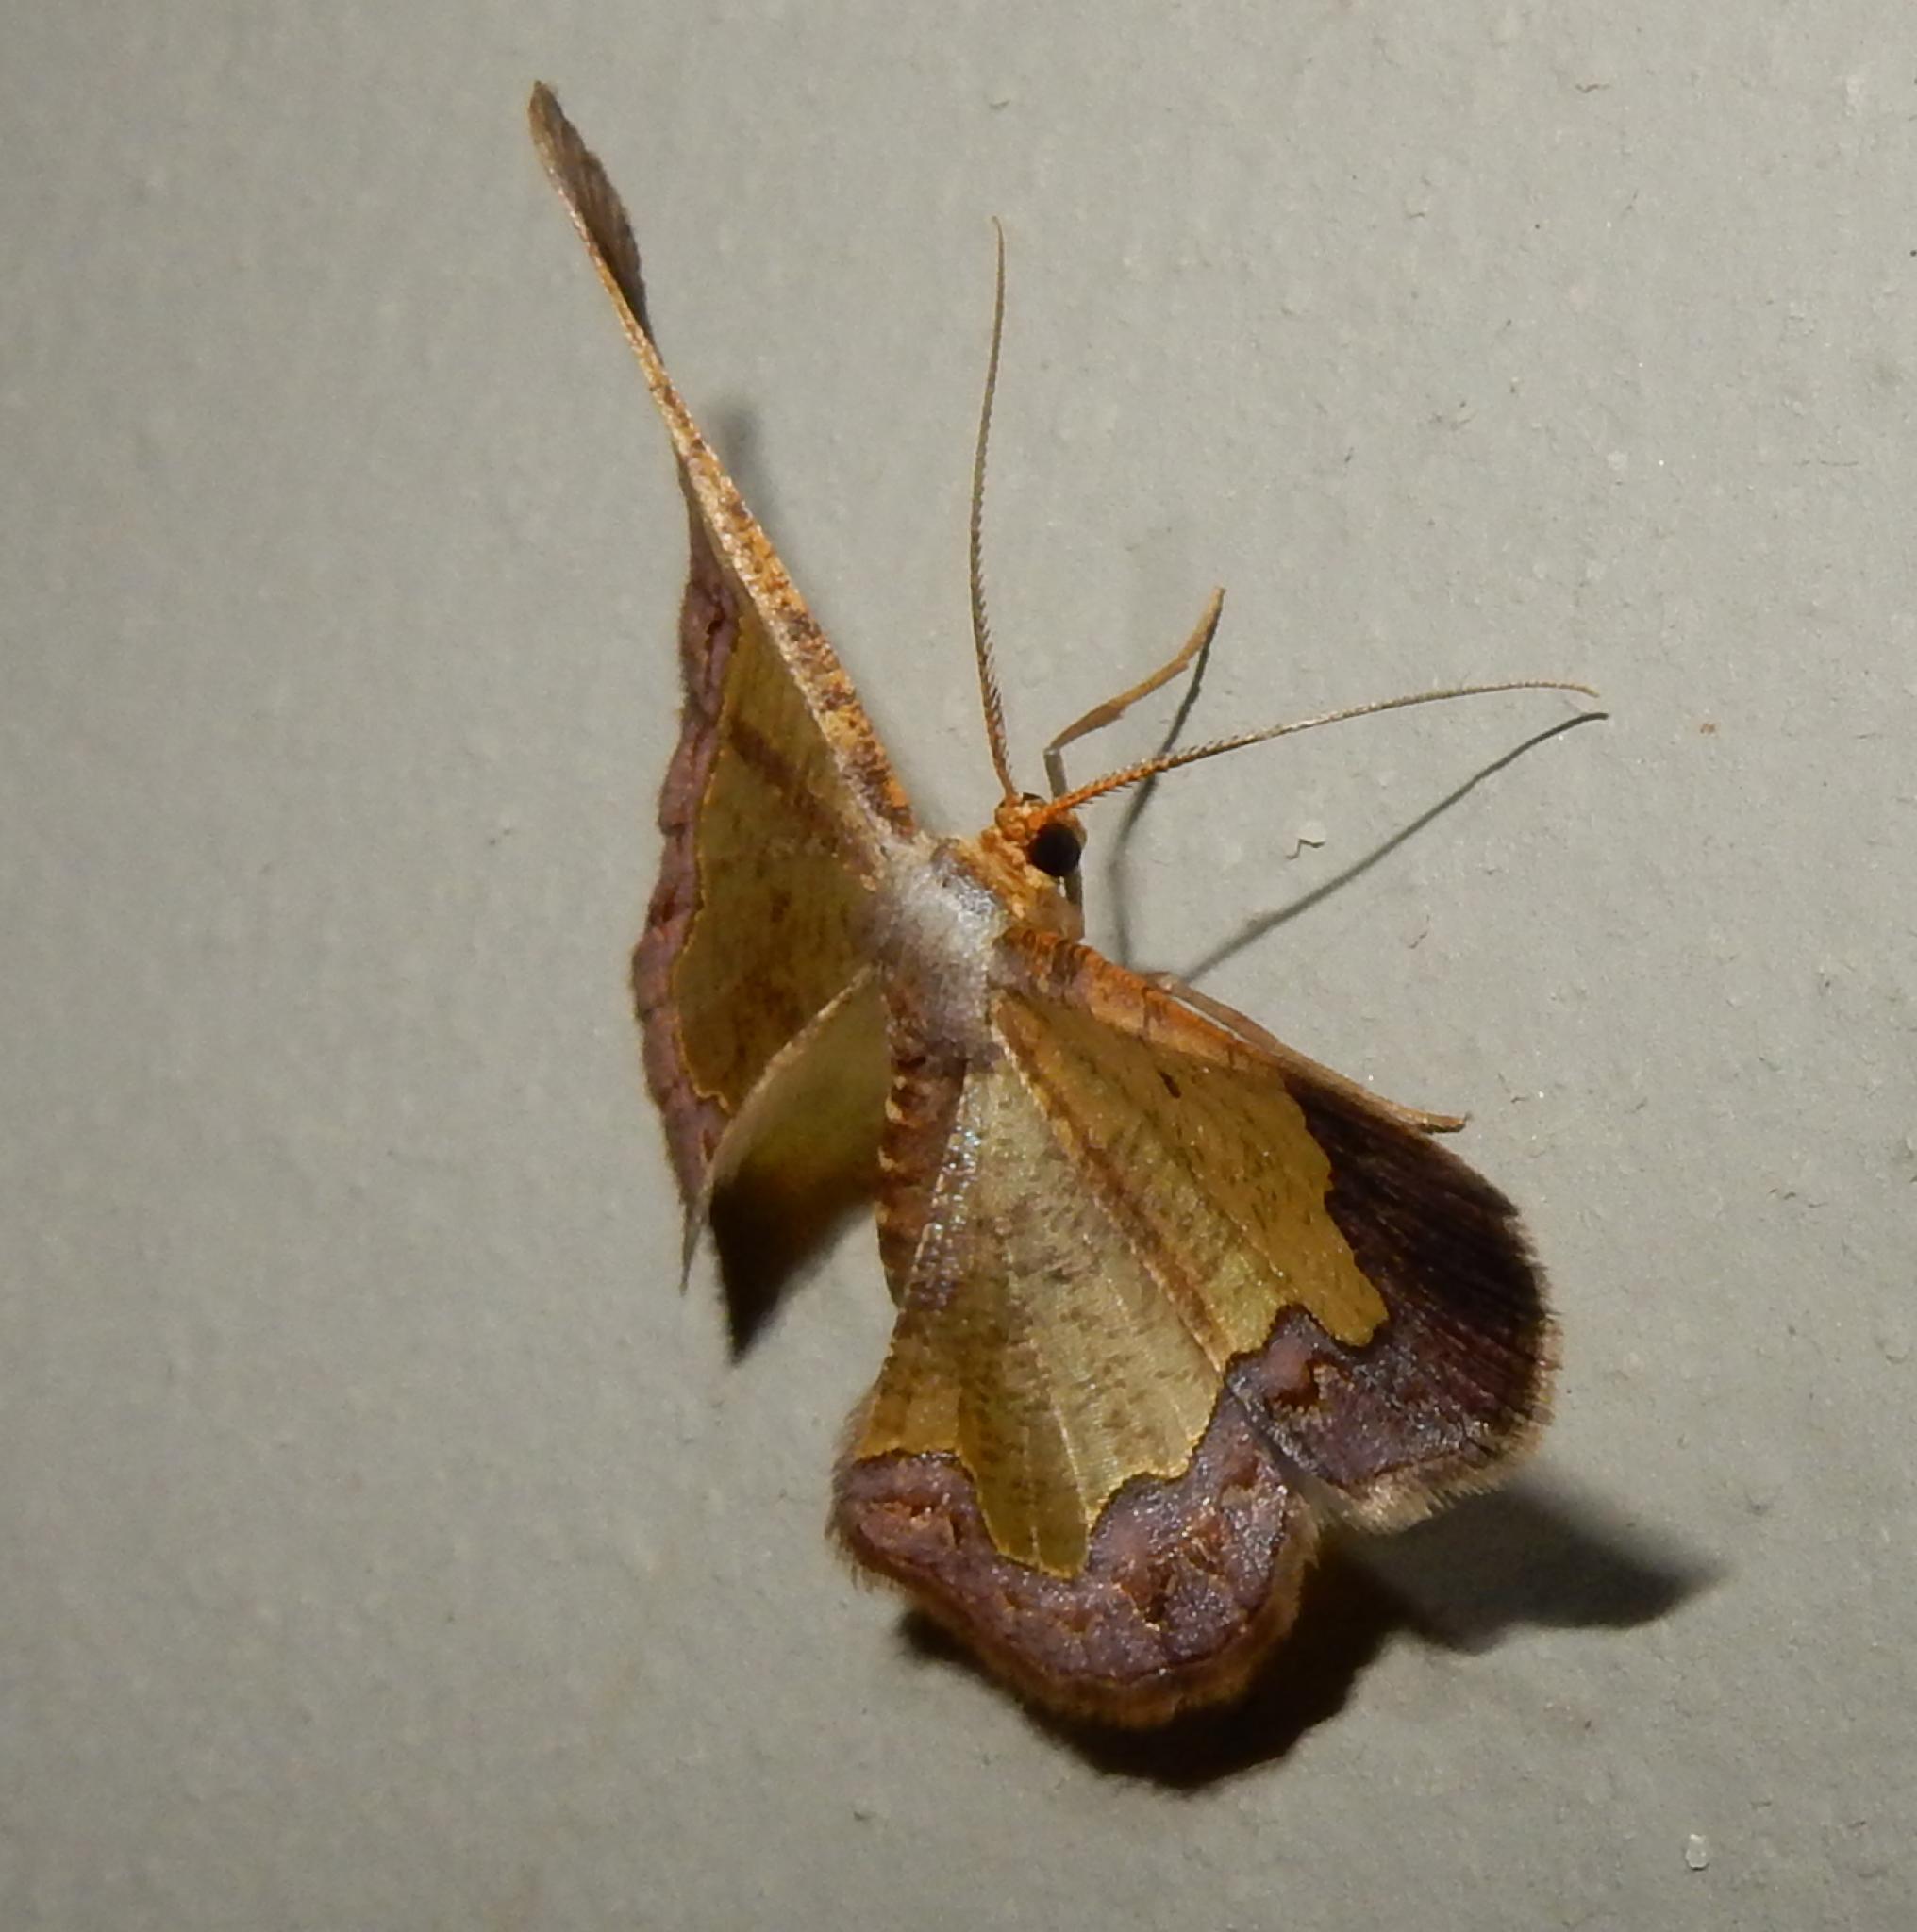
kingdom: Animalia
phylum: Arthropoda
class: Insecta
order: Lepidoptera
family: Geometridae
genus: Zamarada
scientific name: Zamarada plana
